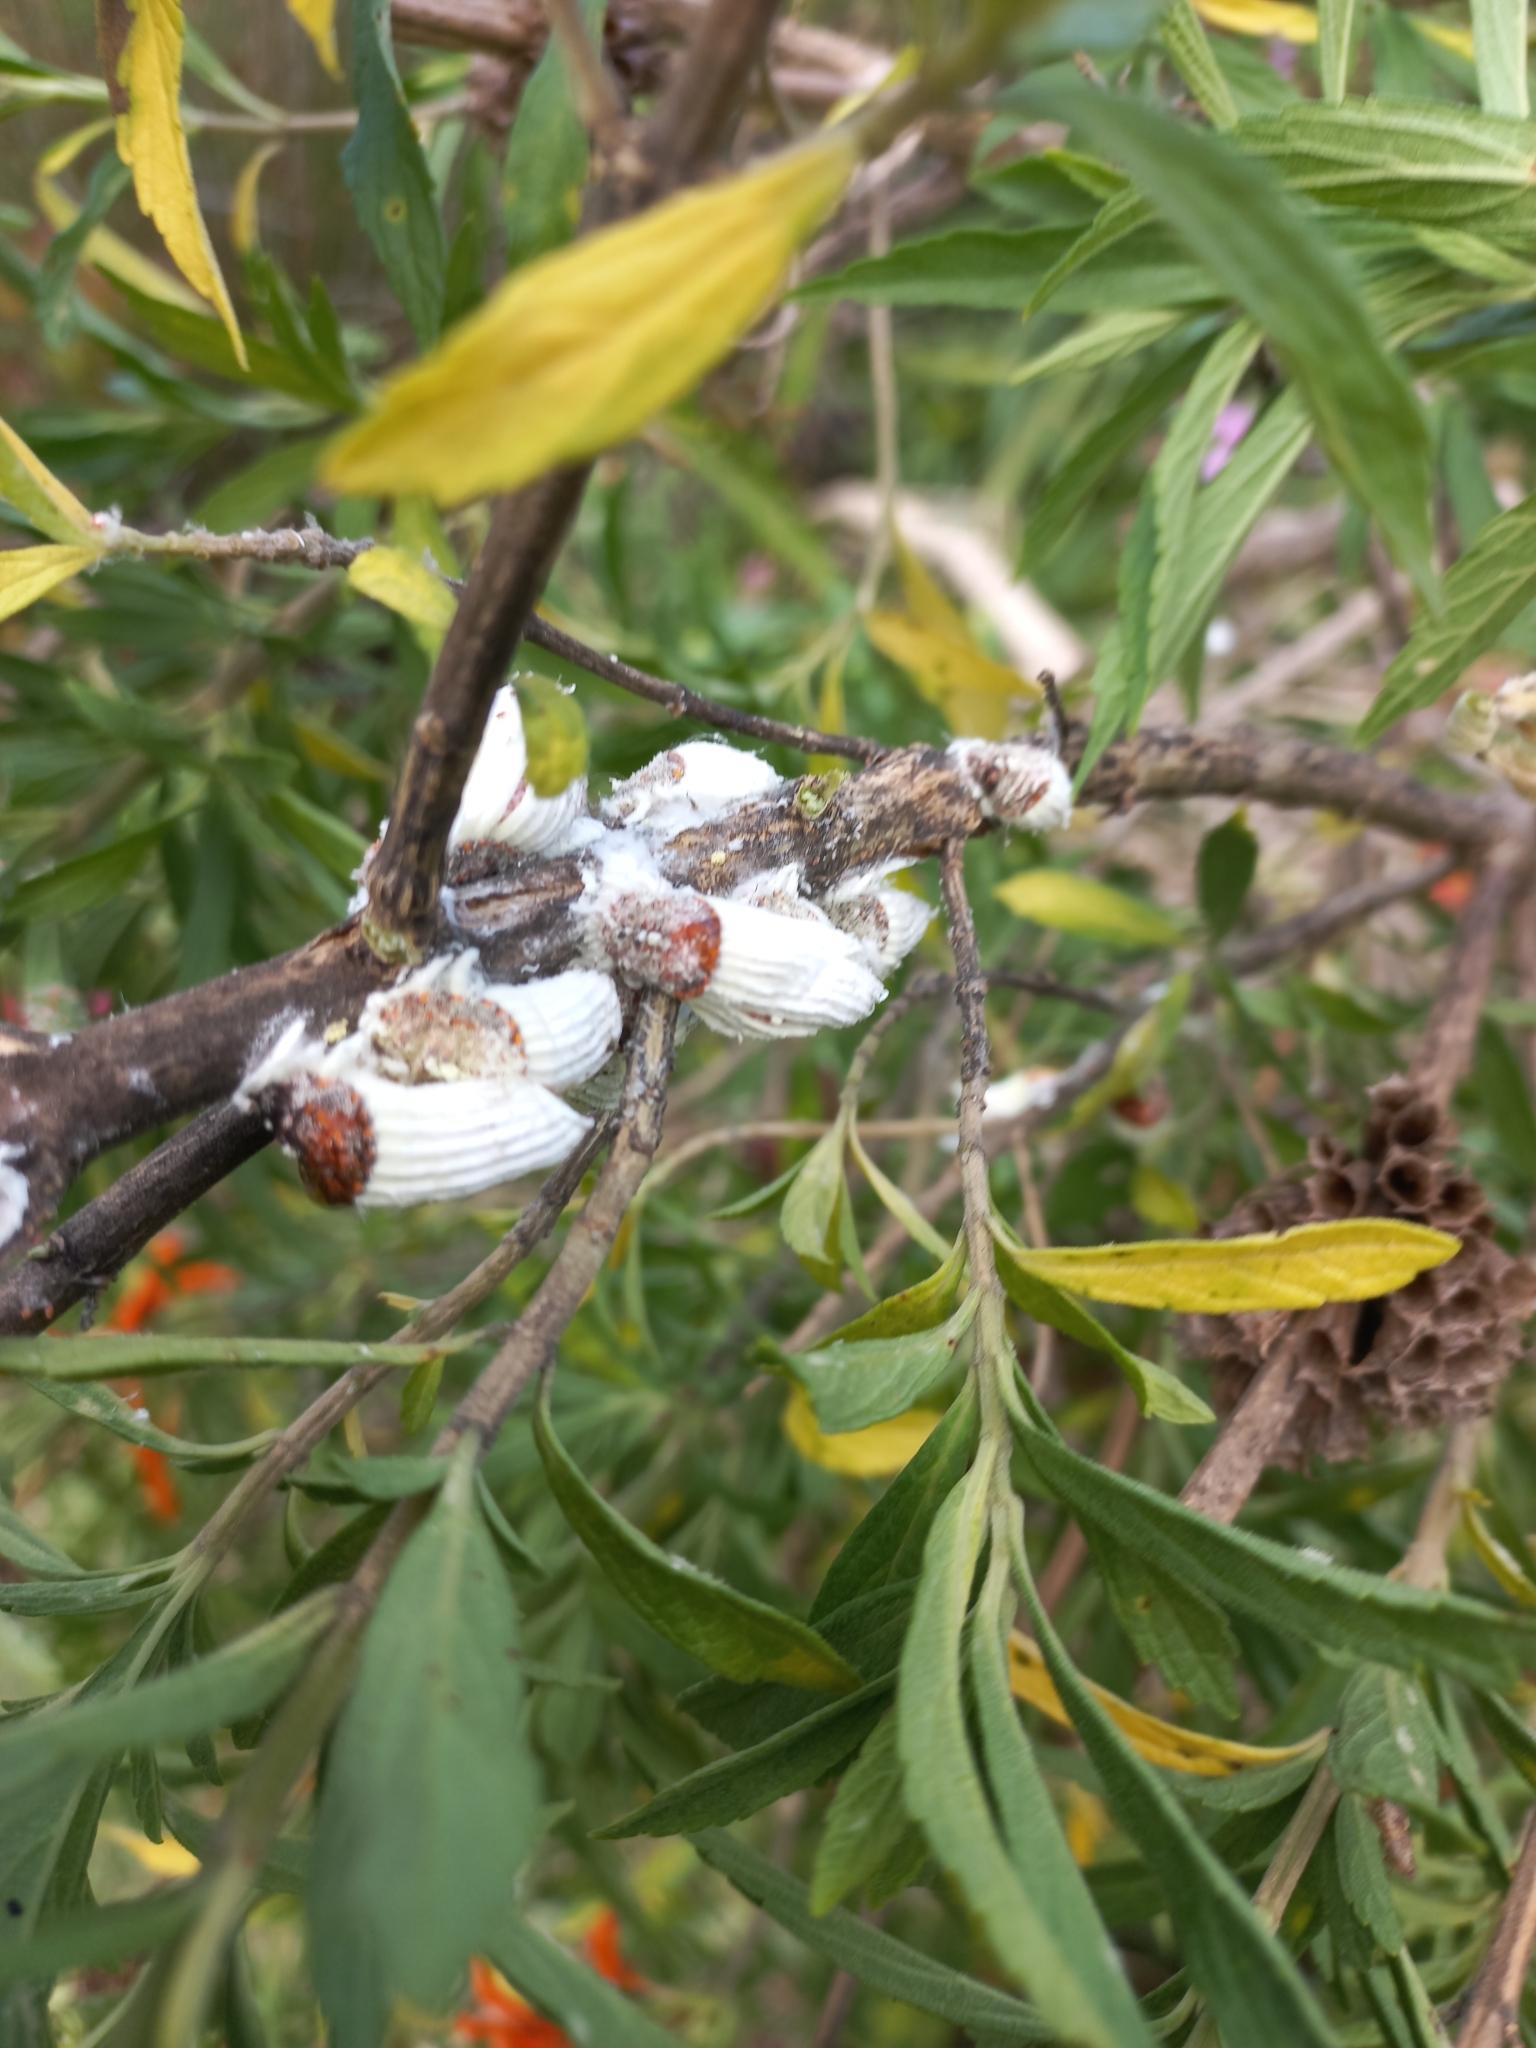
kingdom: Animalia
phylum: Arthropoda
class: Insecta
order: Hemiptera
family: Margarodidae
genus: Icerya
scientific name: Icerya purchasi
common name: Cottony cushion scale
